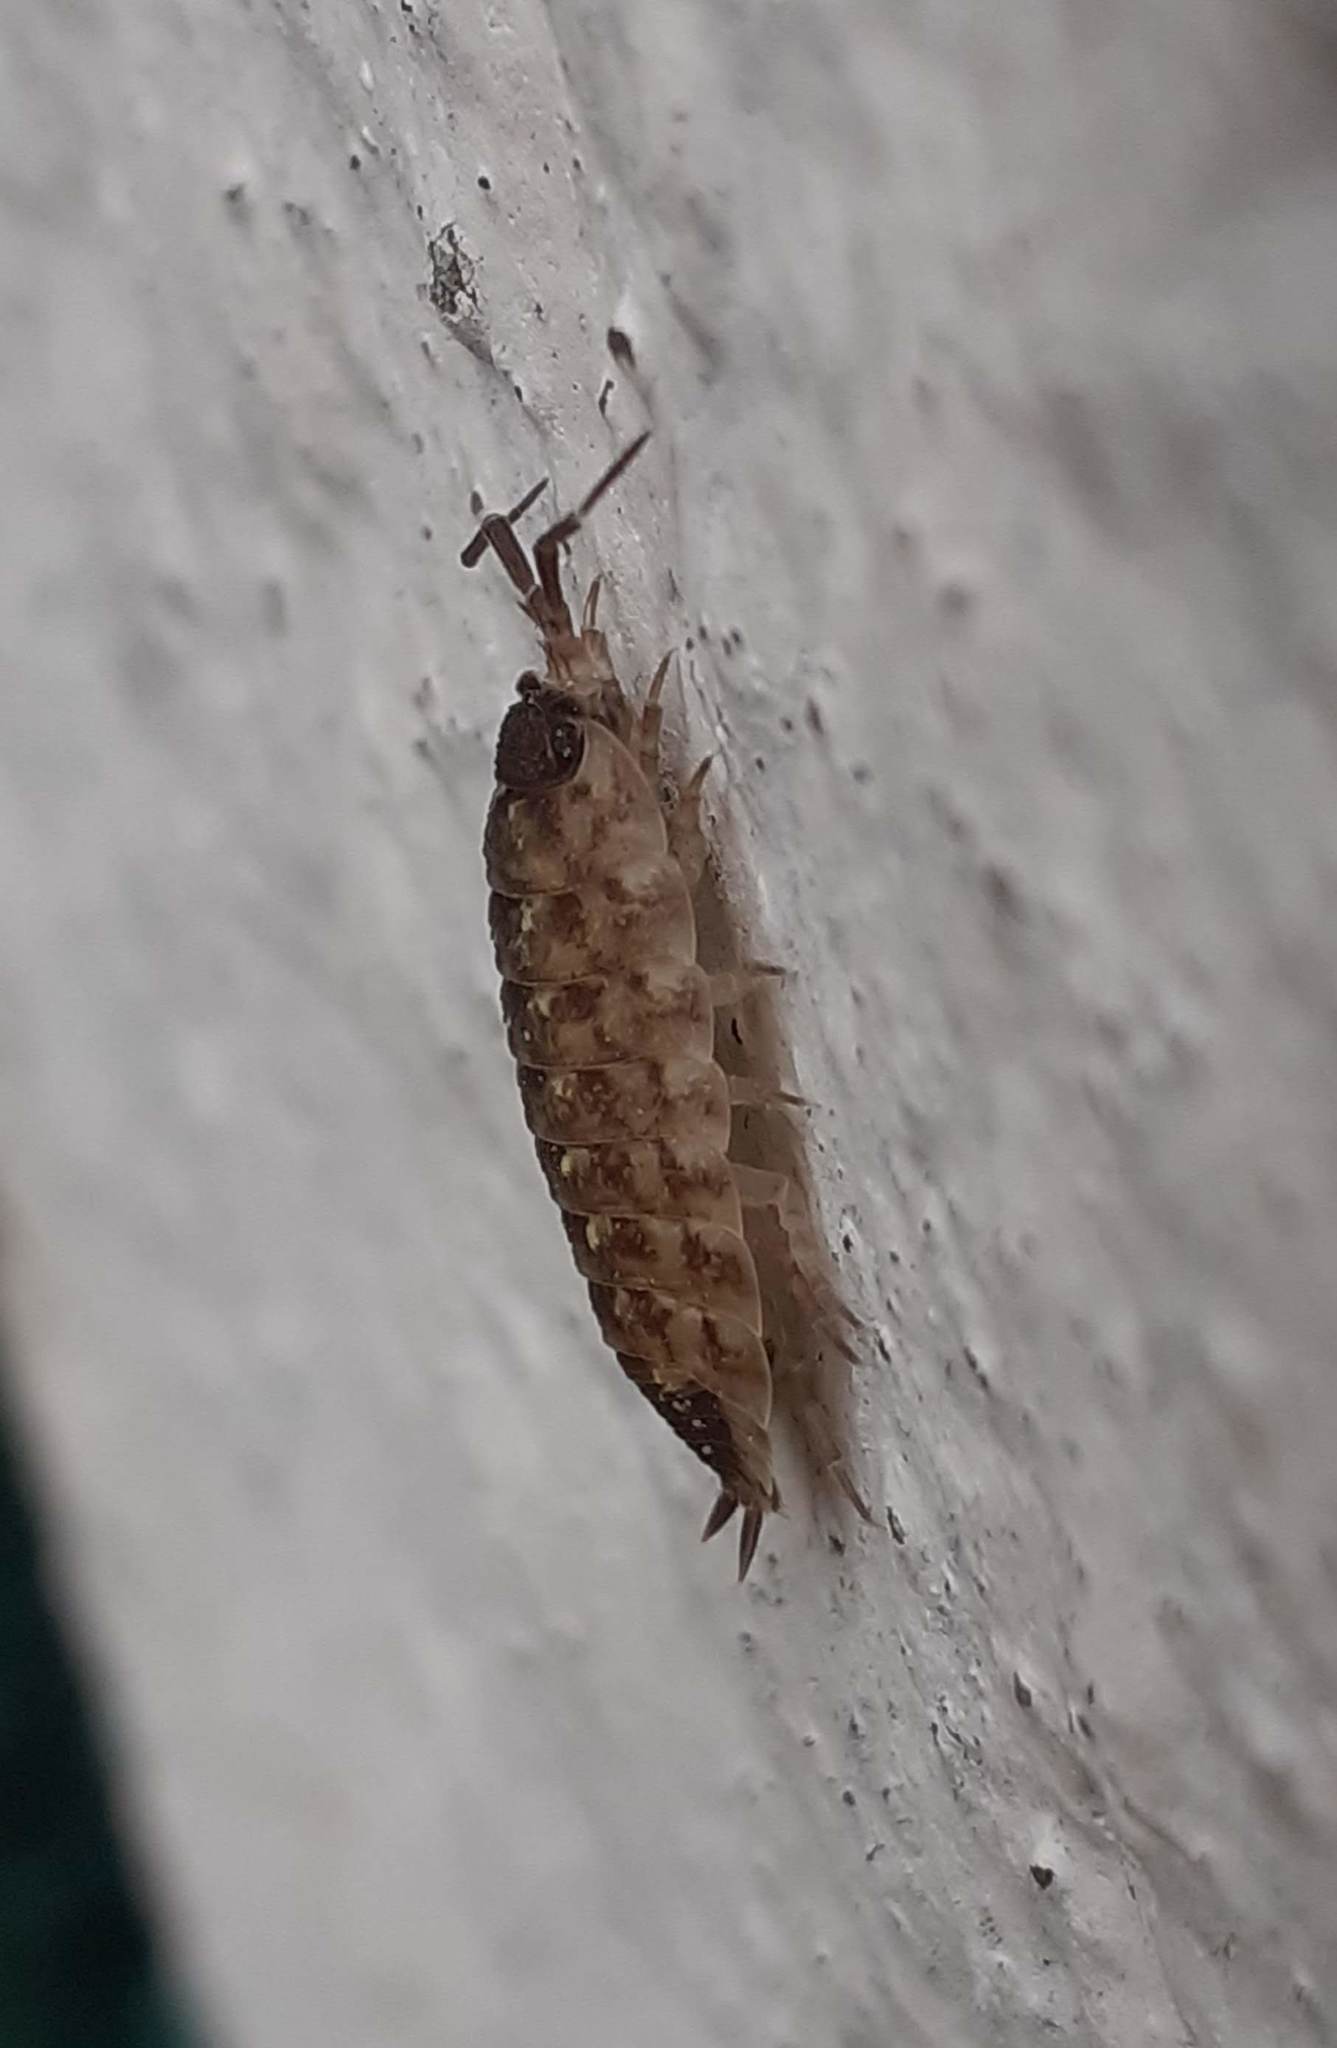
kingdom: Animalia
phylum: Arthropoda
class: Malacostraca
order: Isopoda
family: Porcellionidae
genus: Porcellio
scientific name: Porcellio spinicornis
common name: Painted woodlouse
